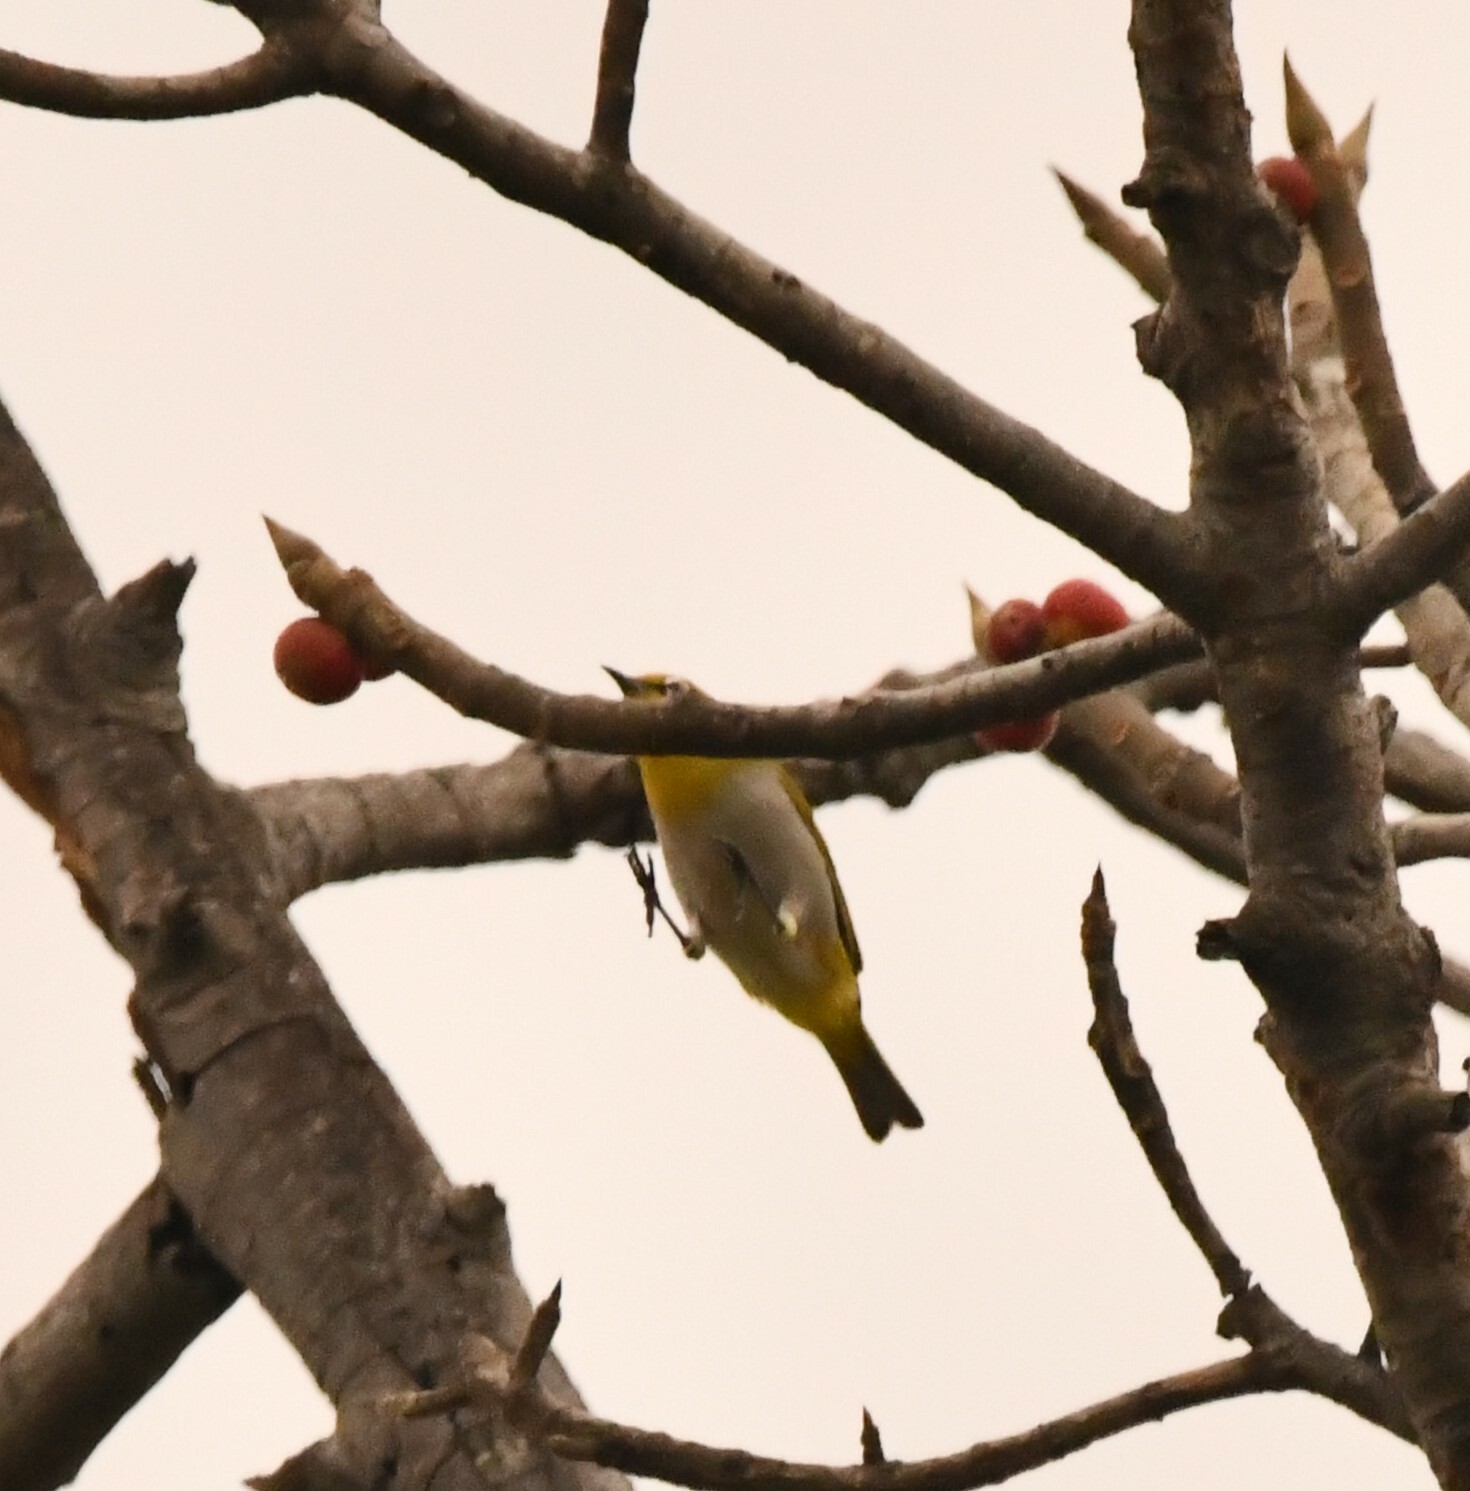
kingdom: Animalia
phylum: Chordata
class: Aves
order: Passeriformes
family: Zosteropidae
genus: Zosterops
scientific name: Zosterops palpebrosus
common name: Oriental white-eye
